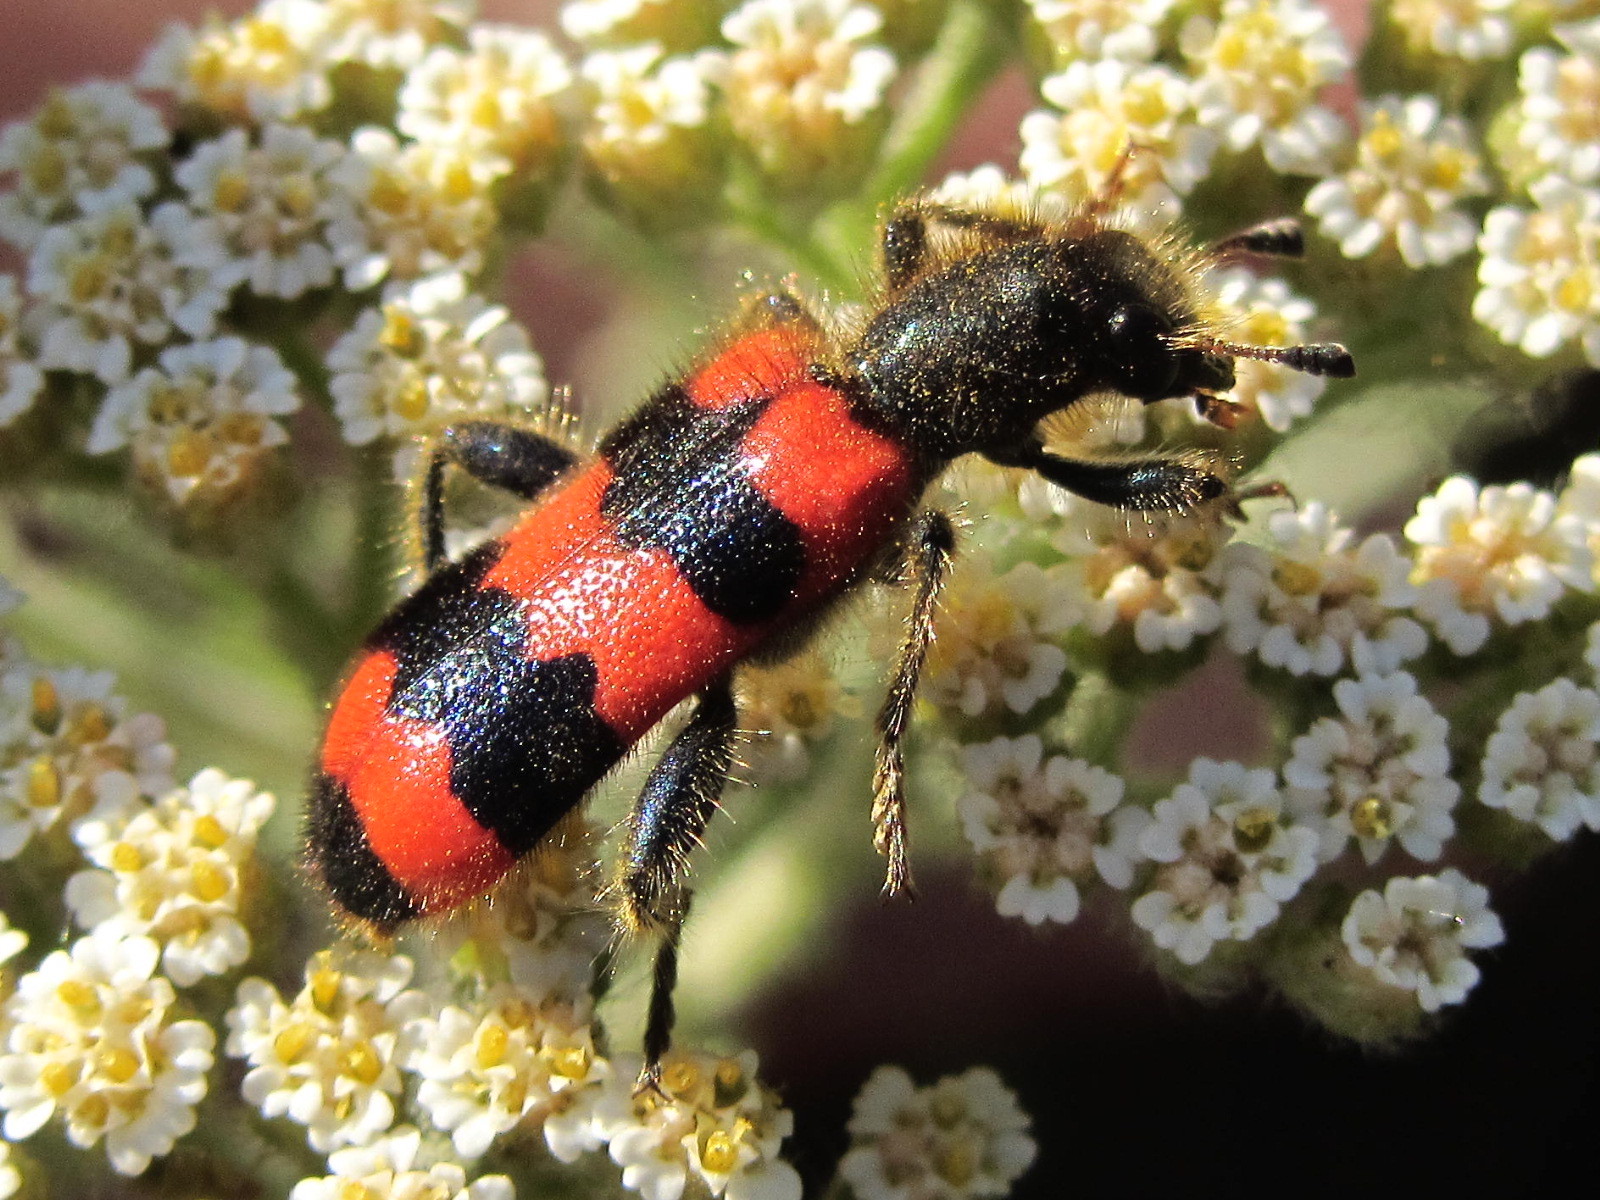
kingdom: Animalia
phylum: Arthropoda
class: Insecta
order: Coleoptera
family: Cleridae
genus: Trichodes
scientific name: Trichodes apiarius
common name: Bee-eating beetle
